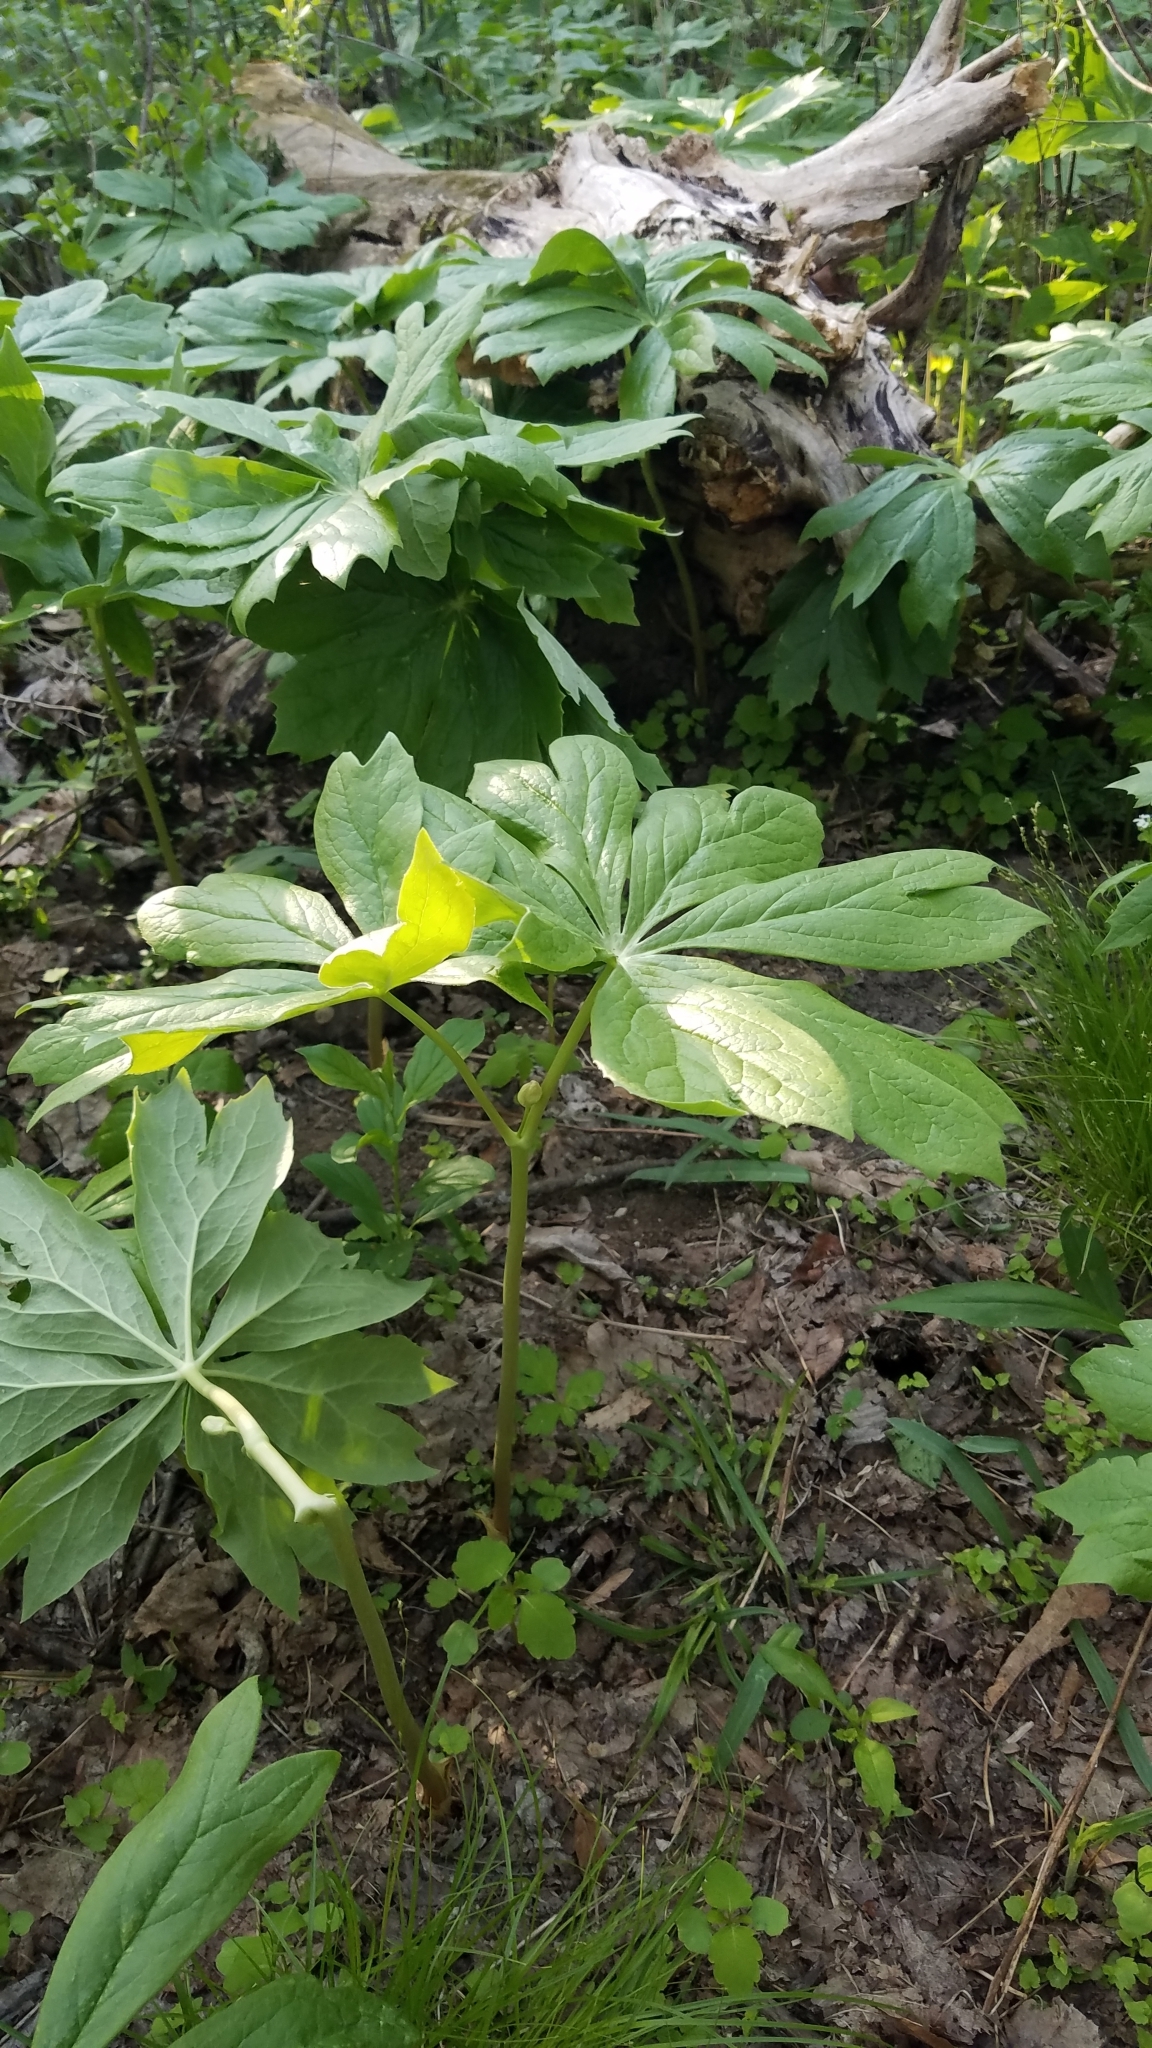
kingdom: Plantae
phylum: Tracheophyta
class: Magnoliopsida
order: Ranunculales
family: Berberidaceae
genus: Podophyllum
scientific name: Podophyllum peltatum
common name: Wild mandrake
